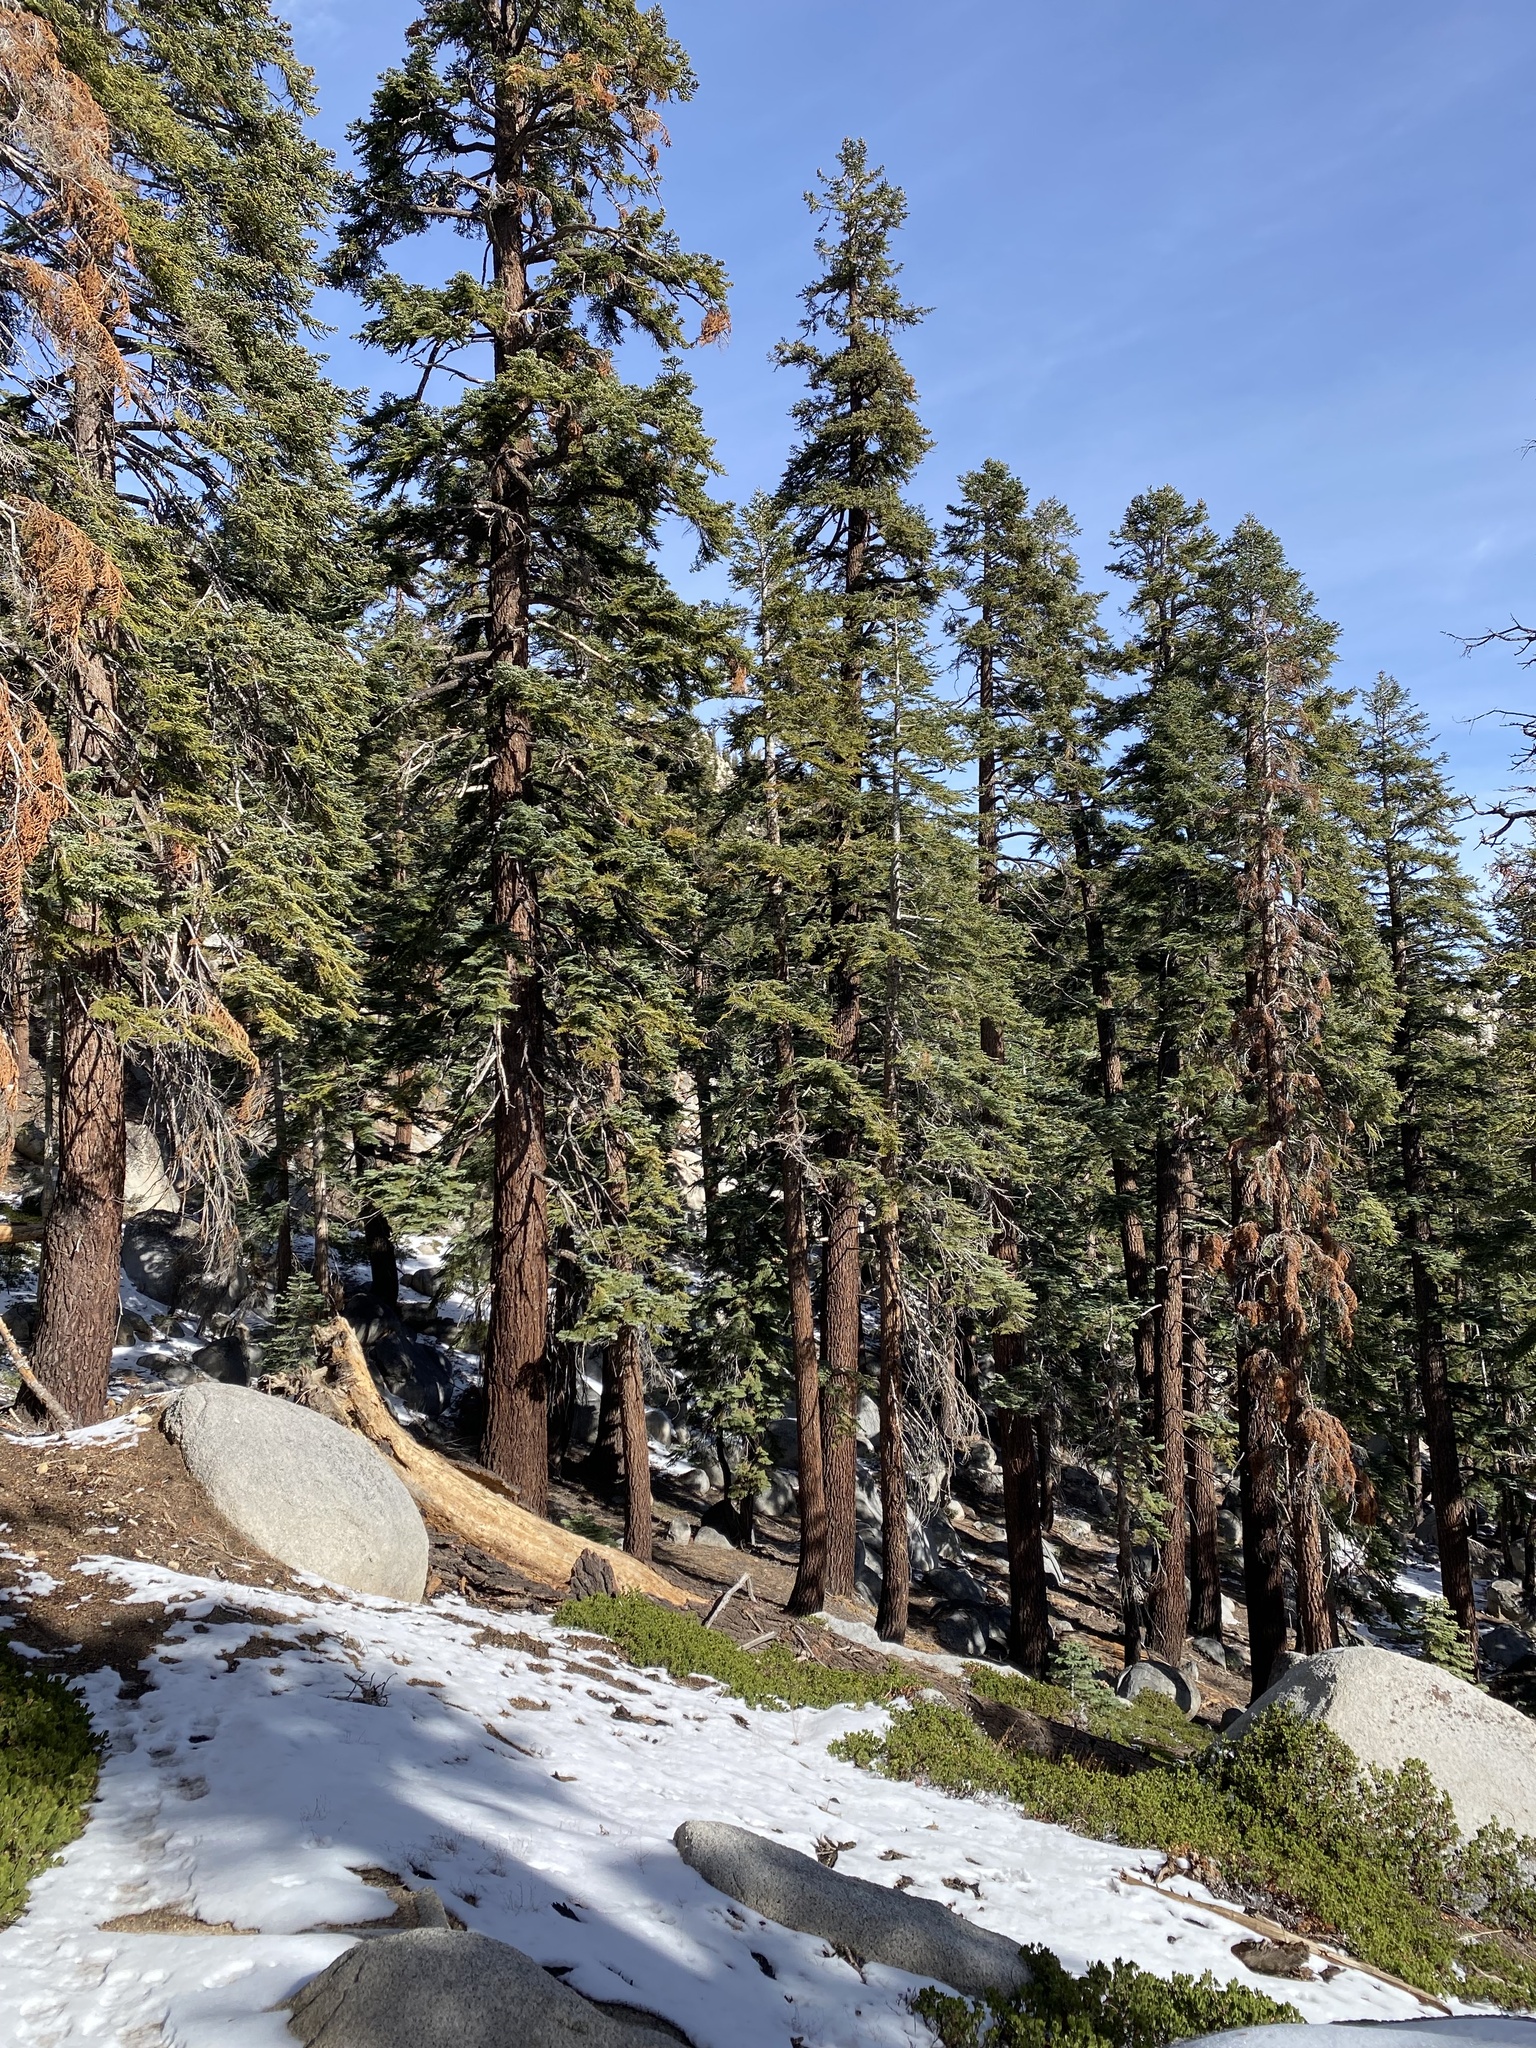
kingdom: Plantae
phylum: Tracheophyta
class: Pinopsida
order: Pinales
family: Pinaceae
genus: Abies
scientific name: Abies magnifica bis
